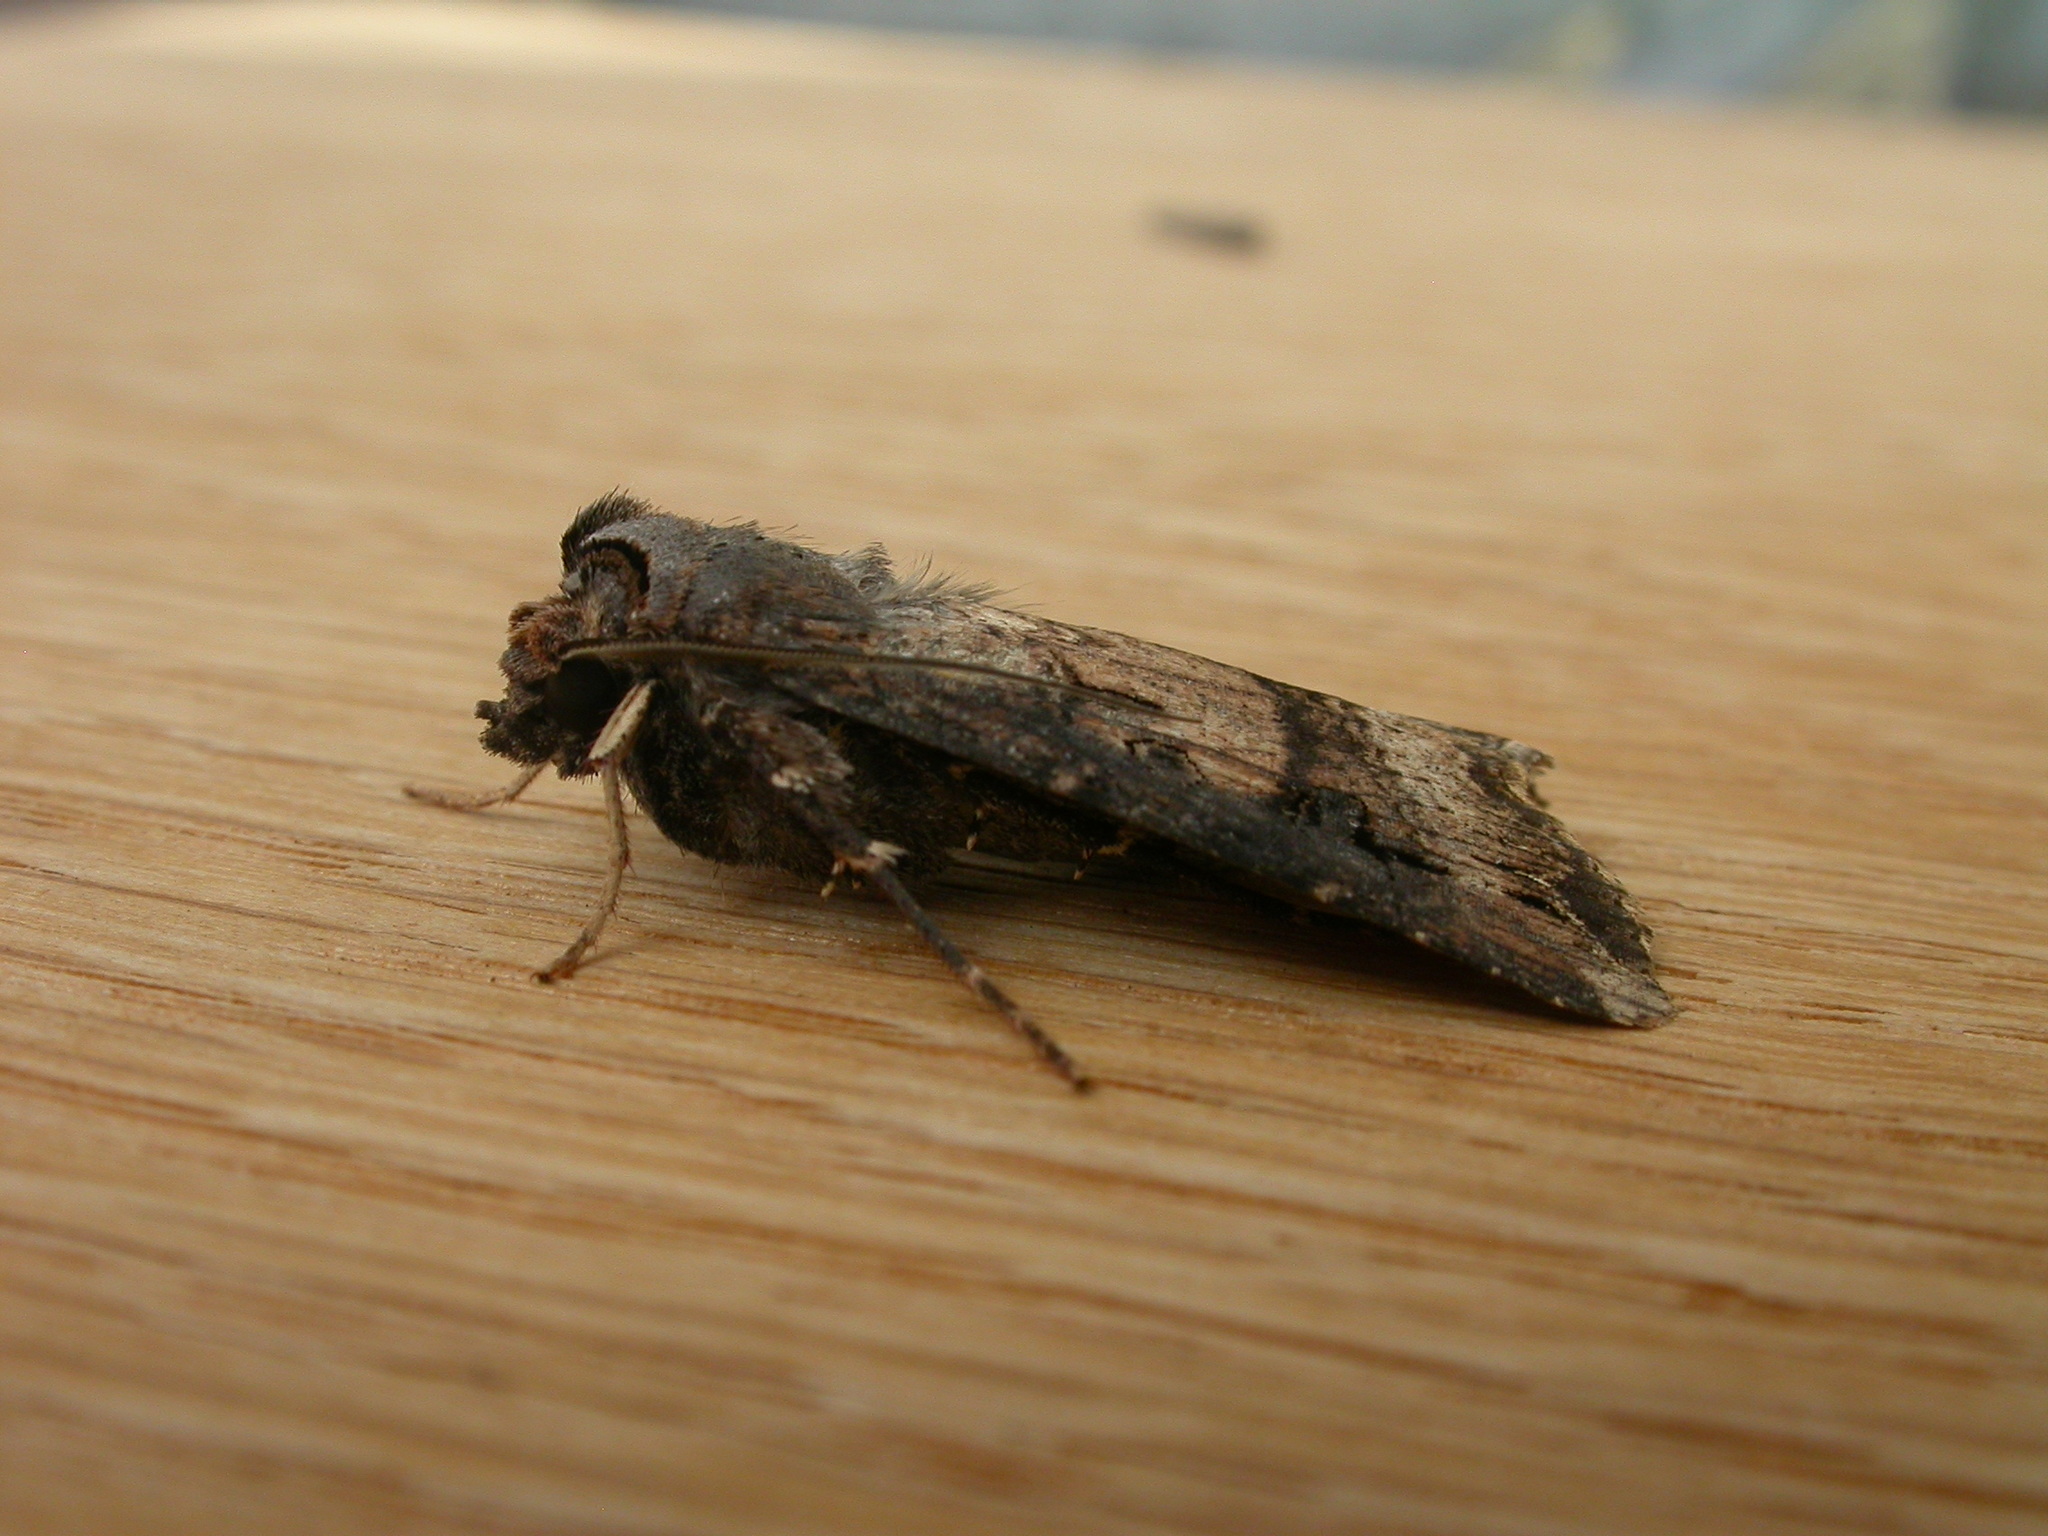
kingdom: Animalia
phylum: Arthropoda
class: Insecta
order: Lepidoptera
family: Noctuidae
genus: Agrotis
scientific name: Agrotis ipsilon
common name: Dark sword-grass
